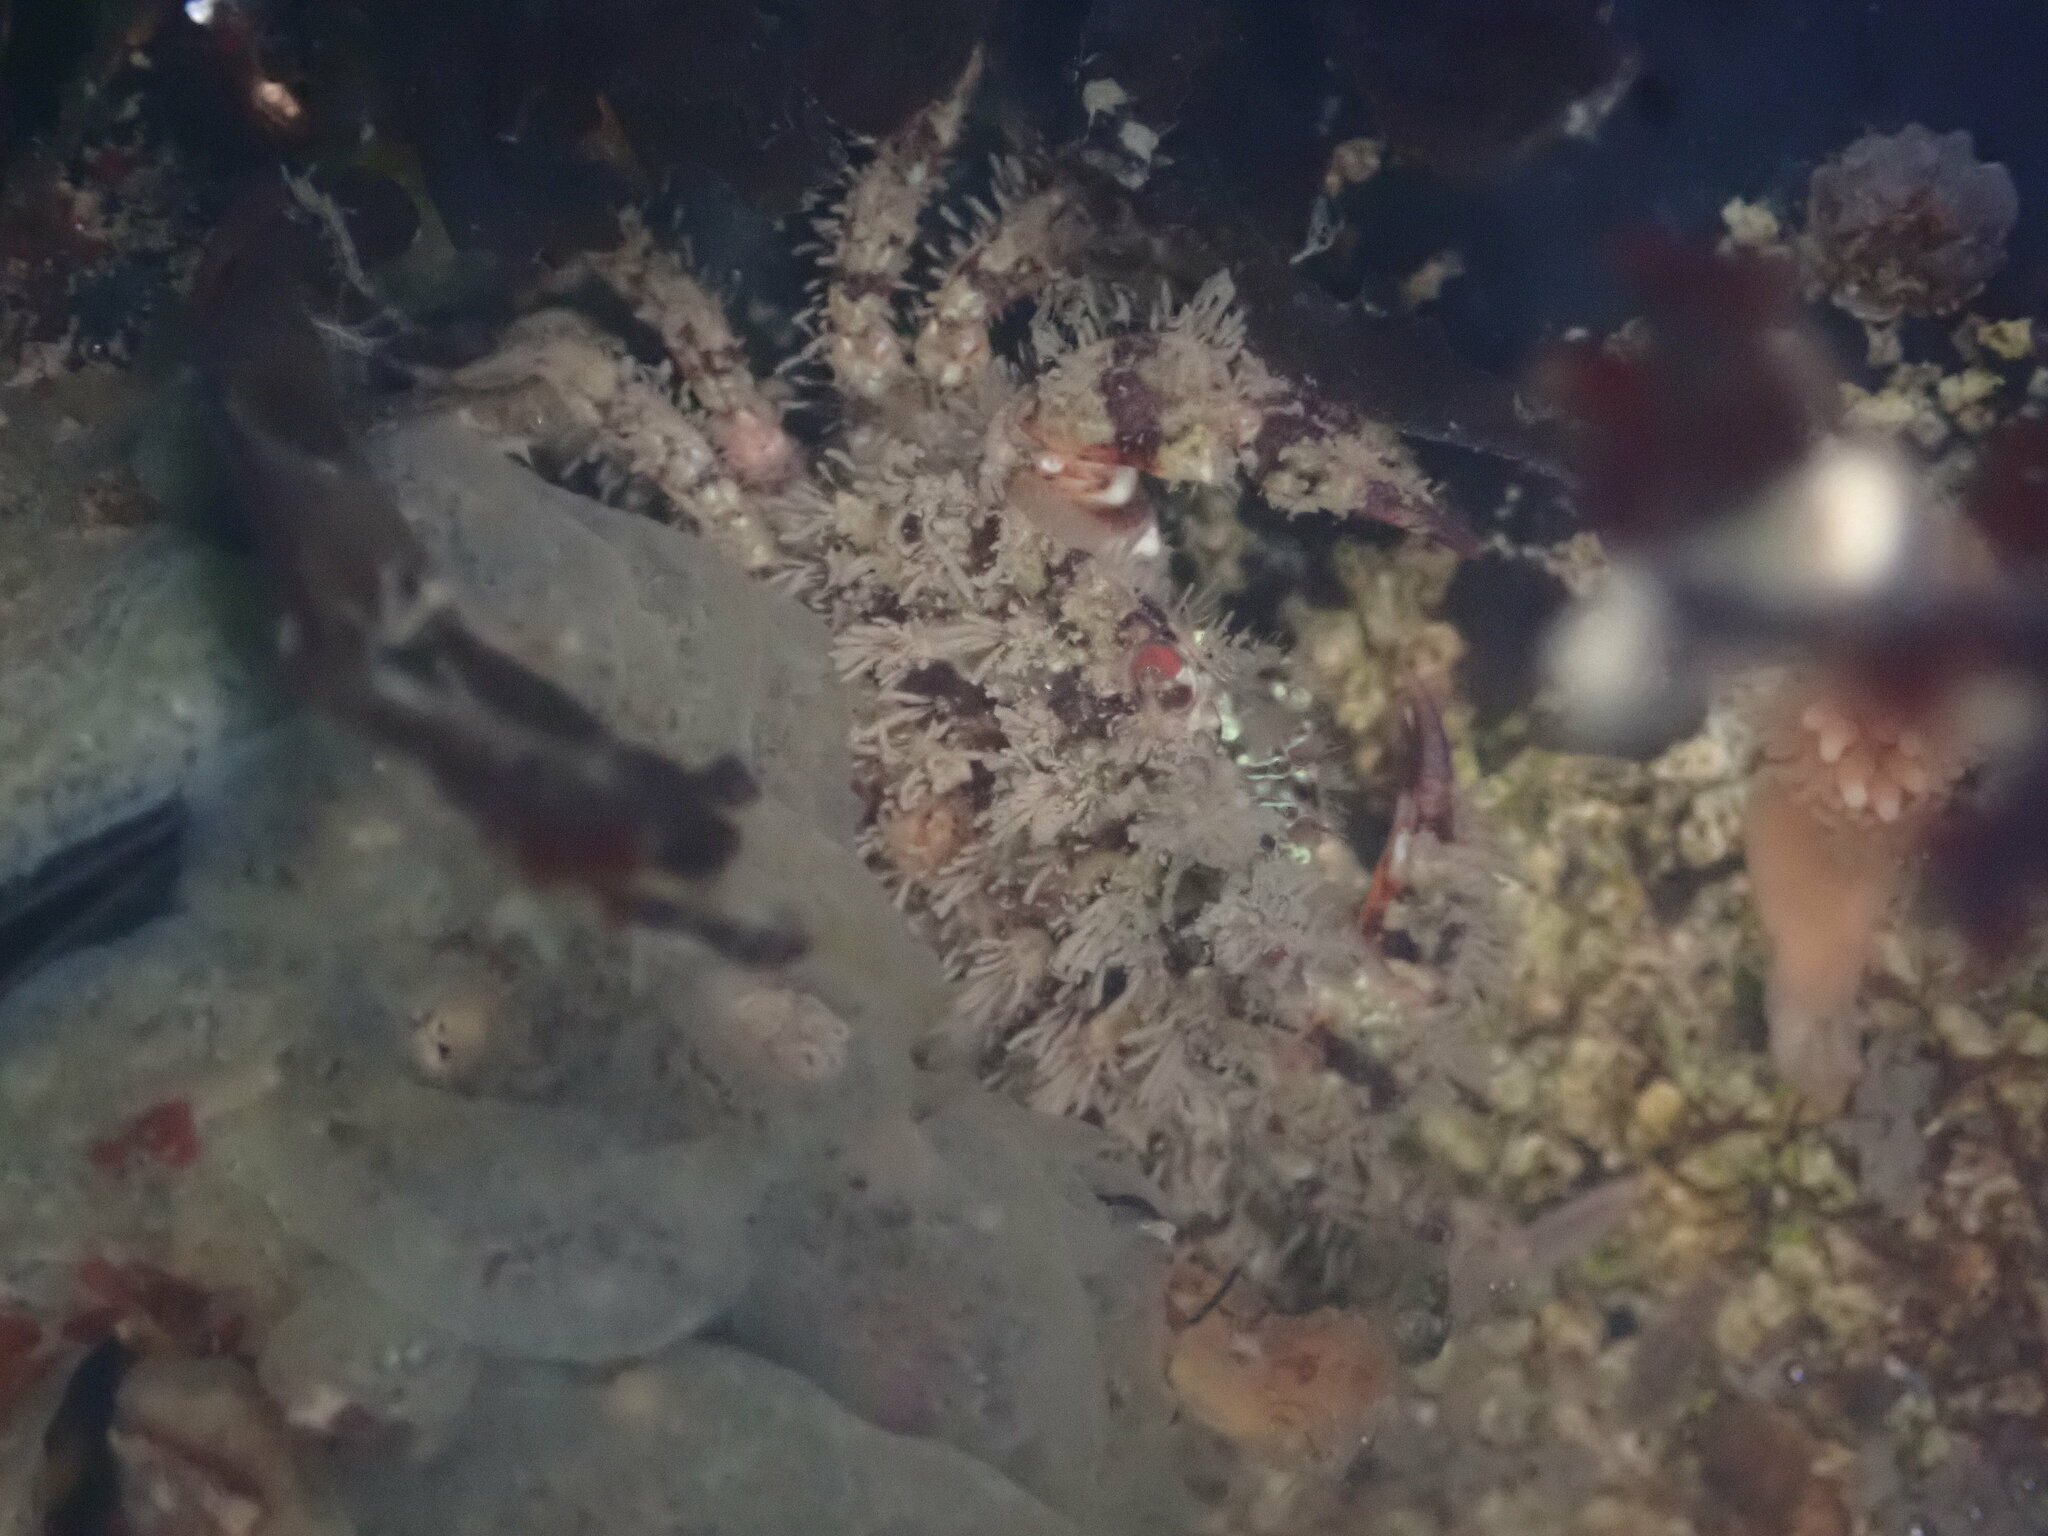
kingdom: Animalia
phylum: Arthropoda
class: Malacostraca
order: Decapoda
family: Cancridae
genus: Romaleon
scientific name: Romaleon antennarium
